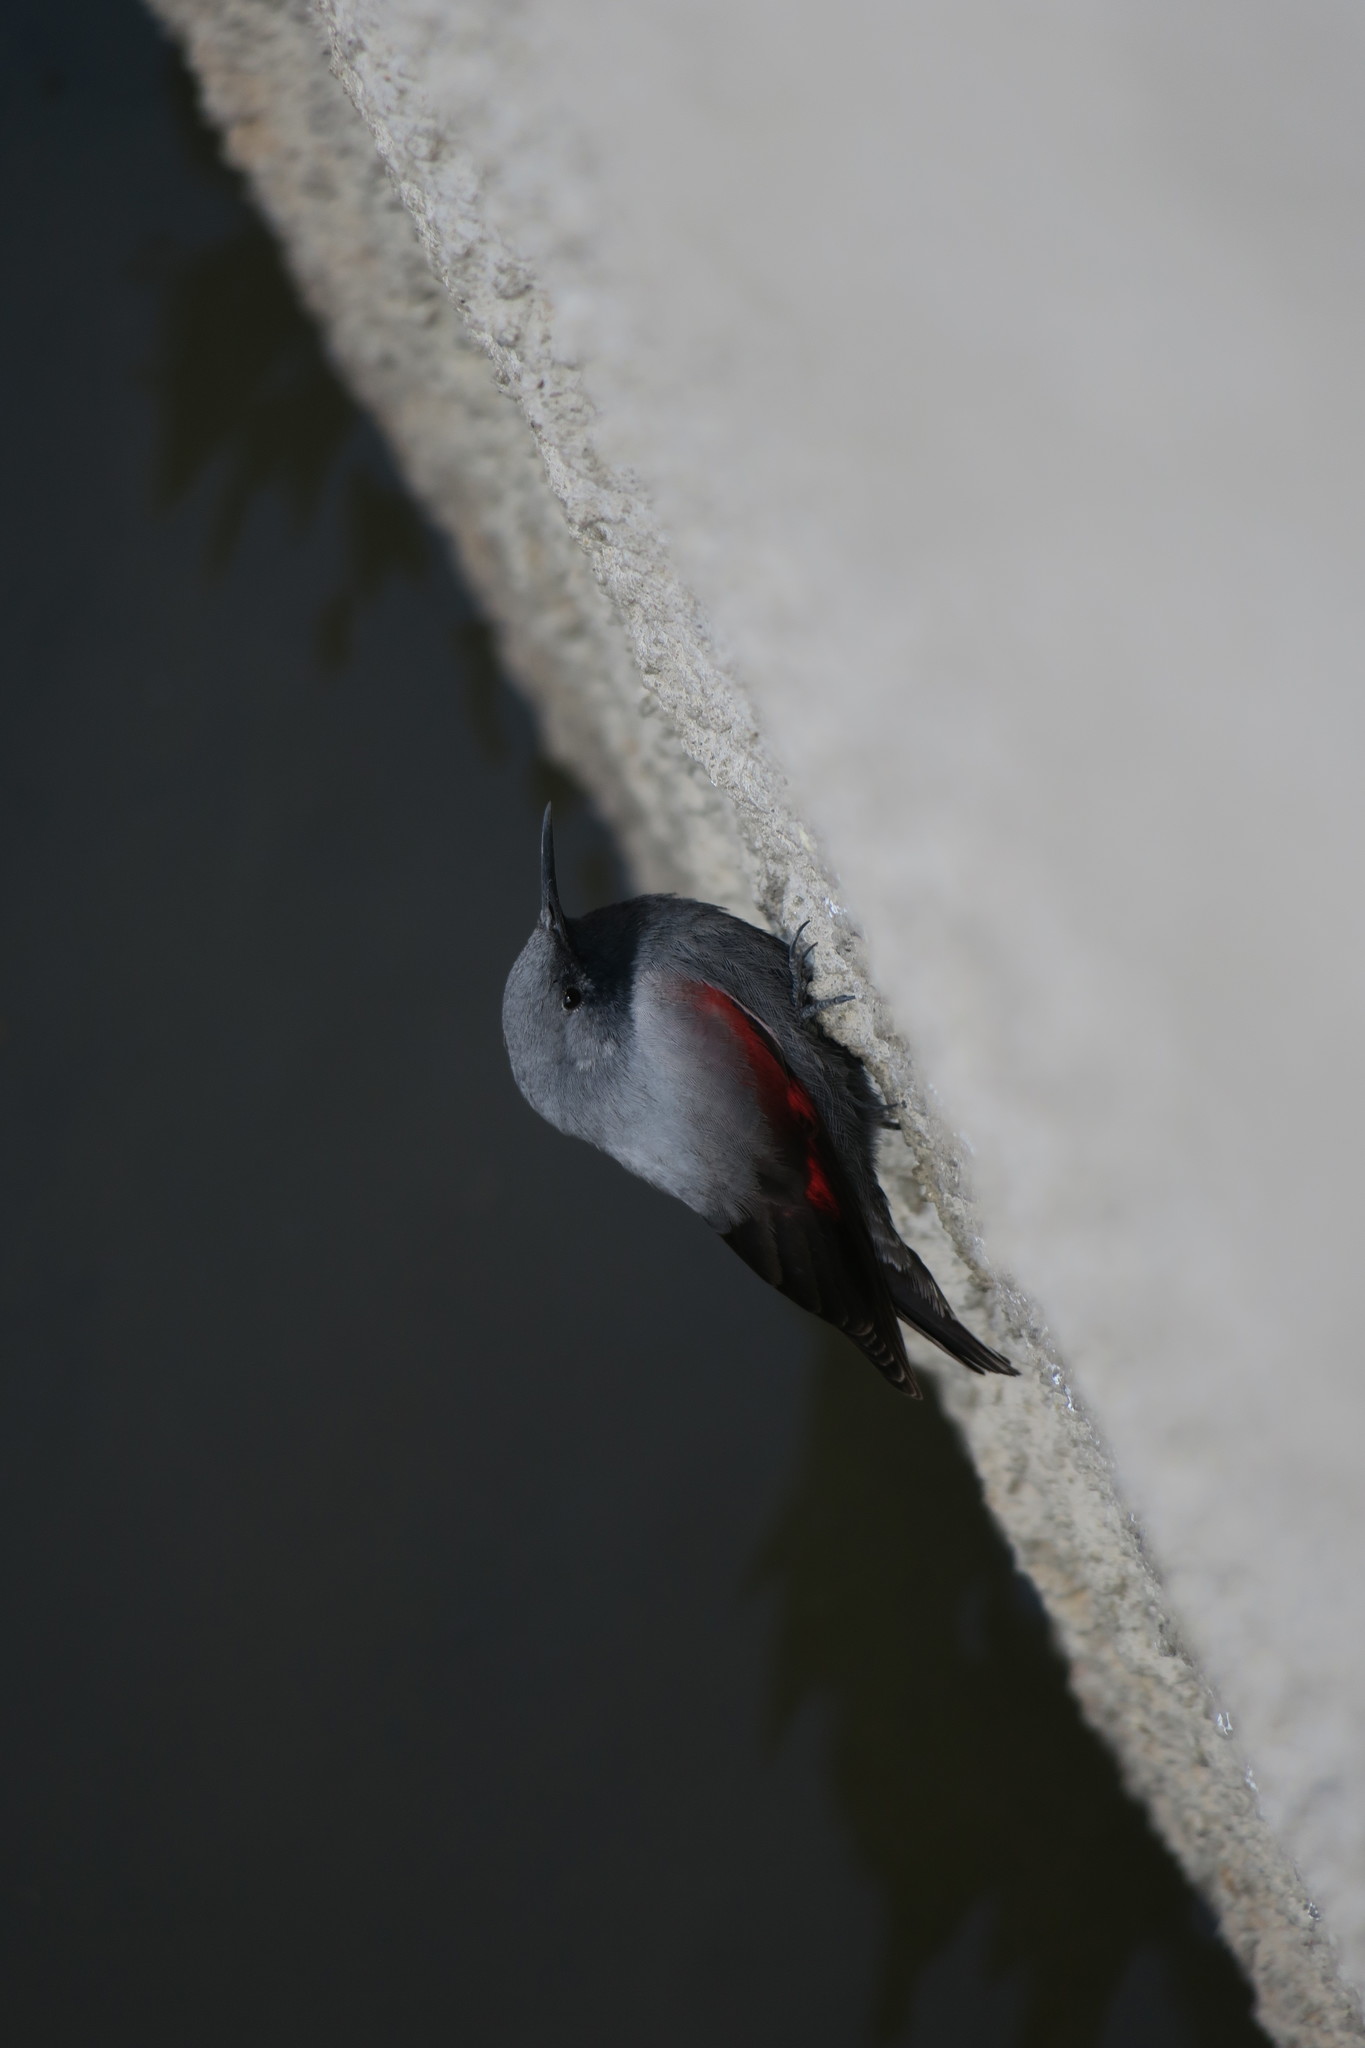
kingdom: Animalia
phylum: Chordata
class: Aves
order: Passeriformes
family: Tichodromidae
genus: Tichodroma
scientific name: Tichodroma muraria
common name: Wallcreeper
